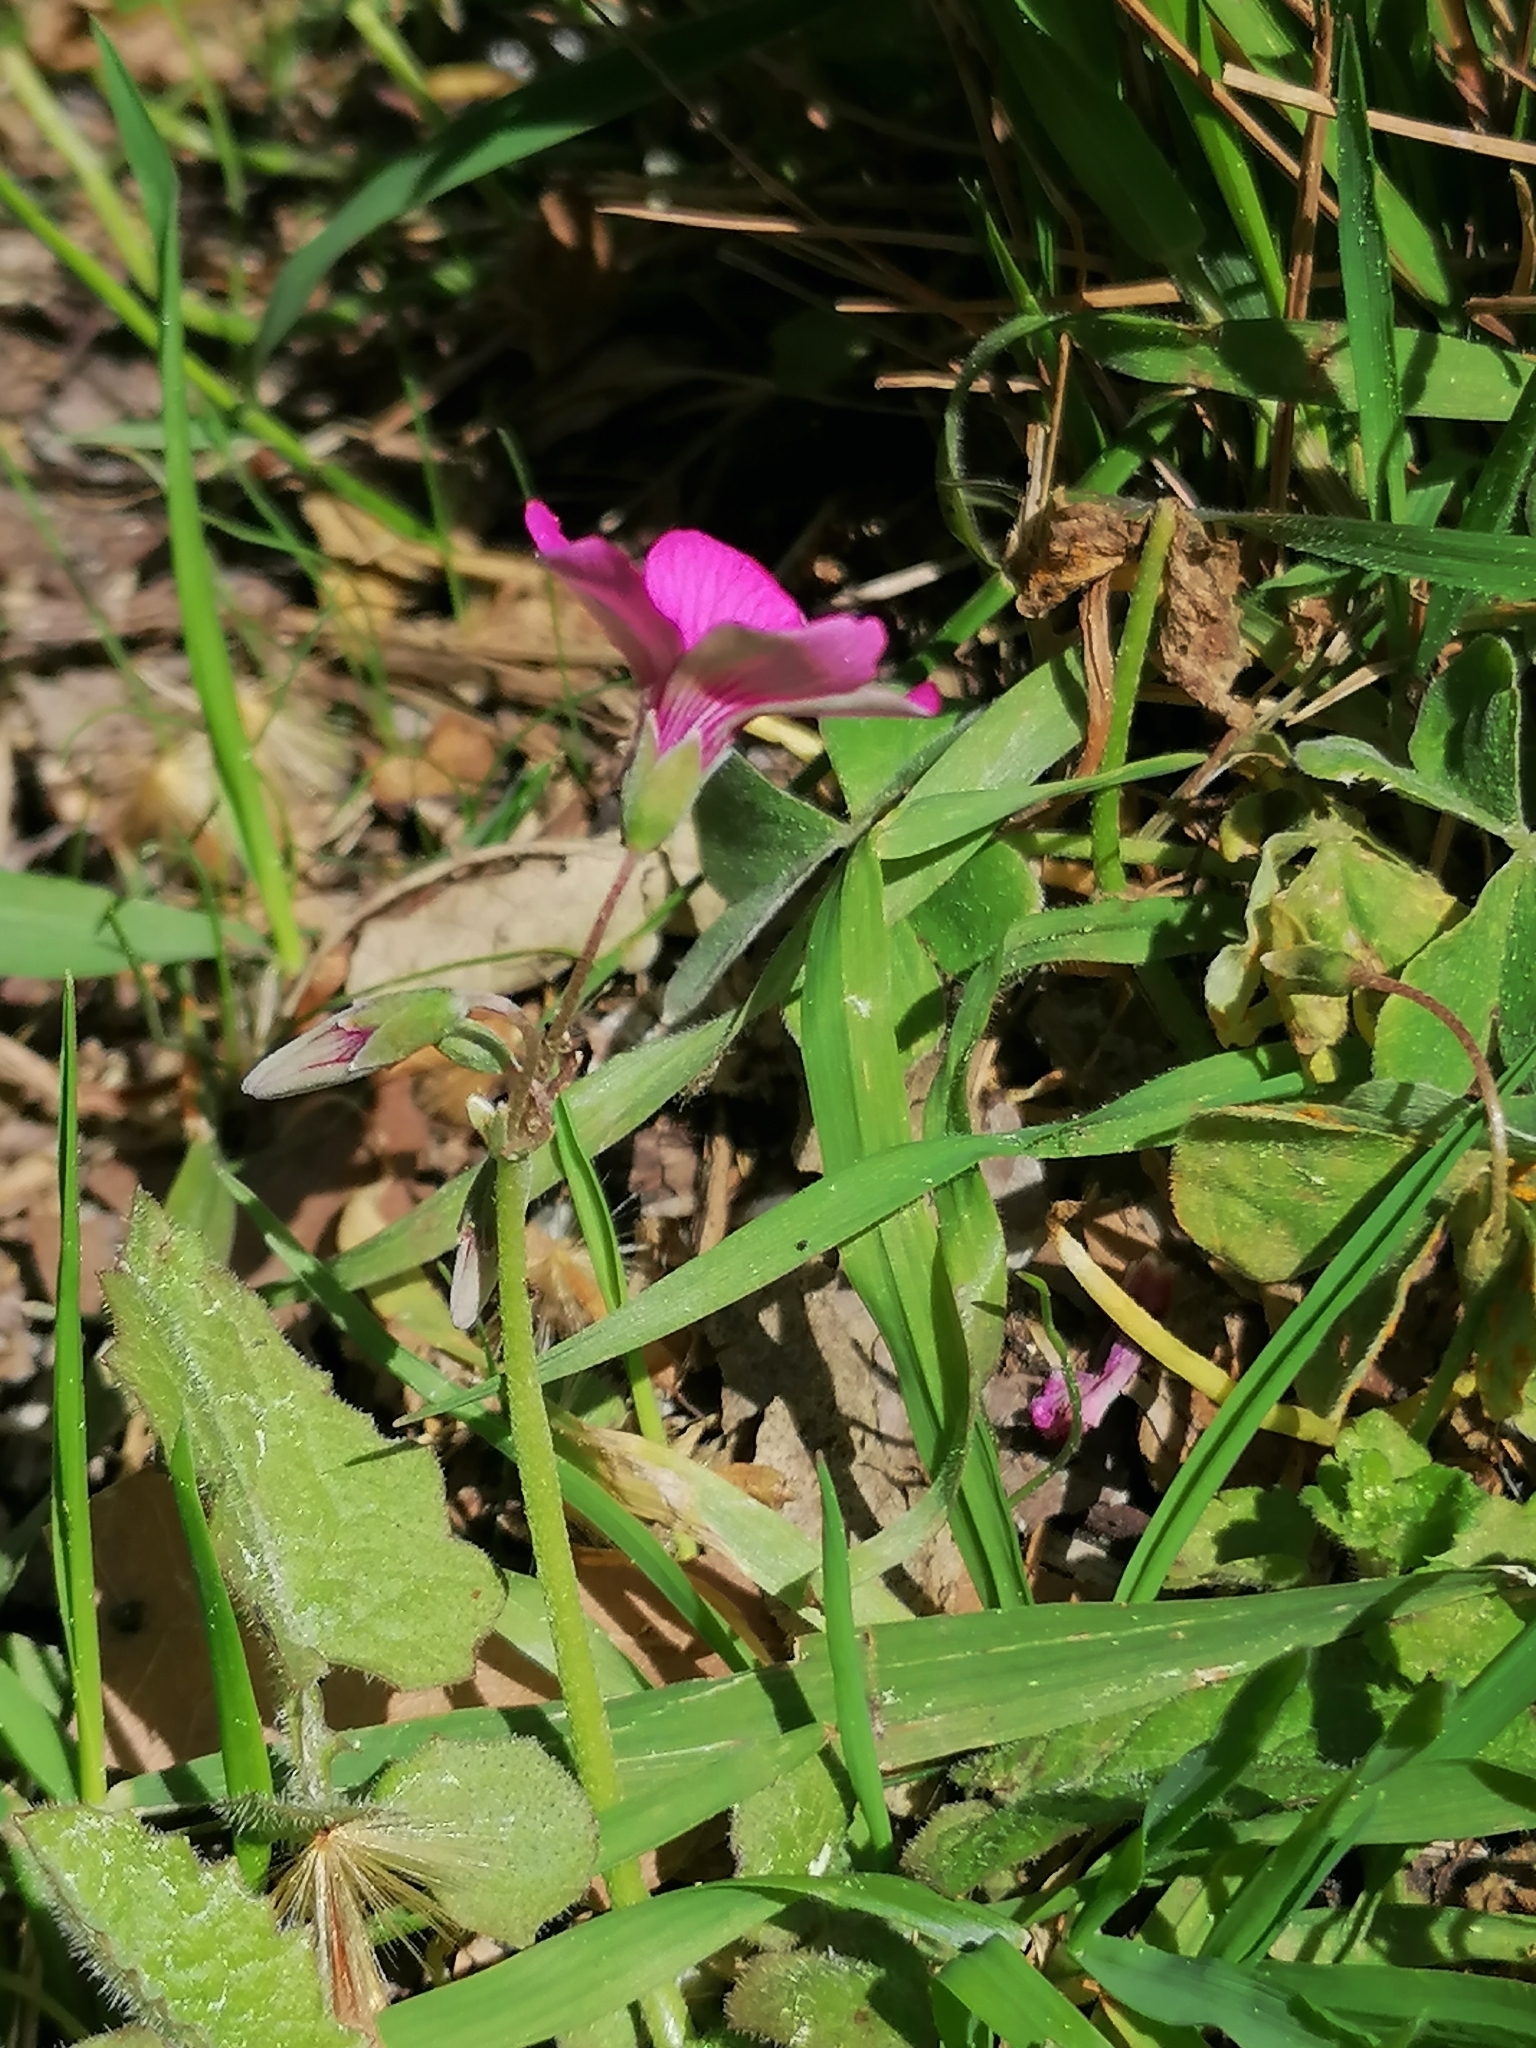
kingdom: Plantae
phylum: Tracheophyta
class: Magnoliopsida
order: Oxalidales
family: Oxalidaceae
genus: Oxalis
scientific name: Oxalis articulata
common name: Pink-sorrel
